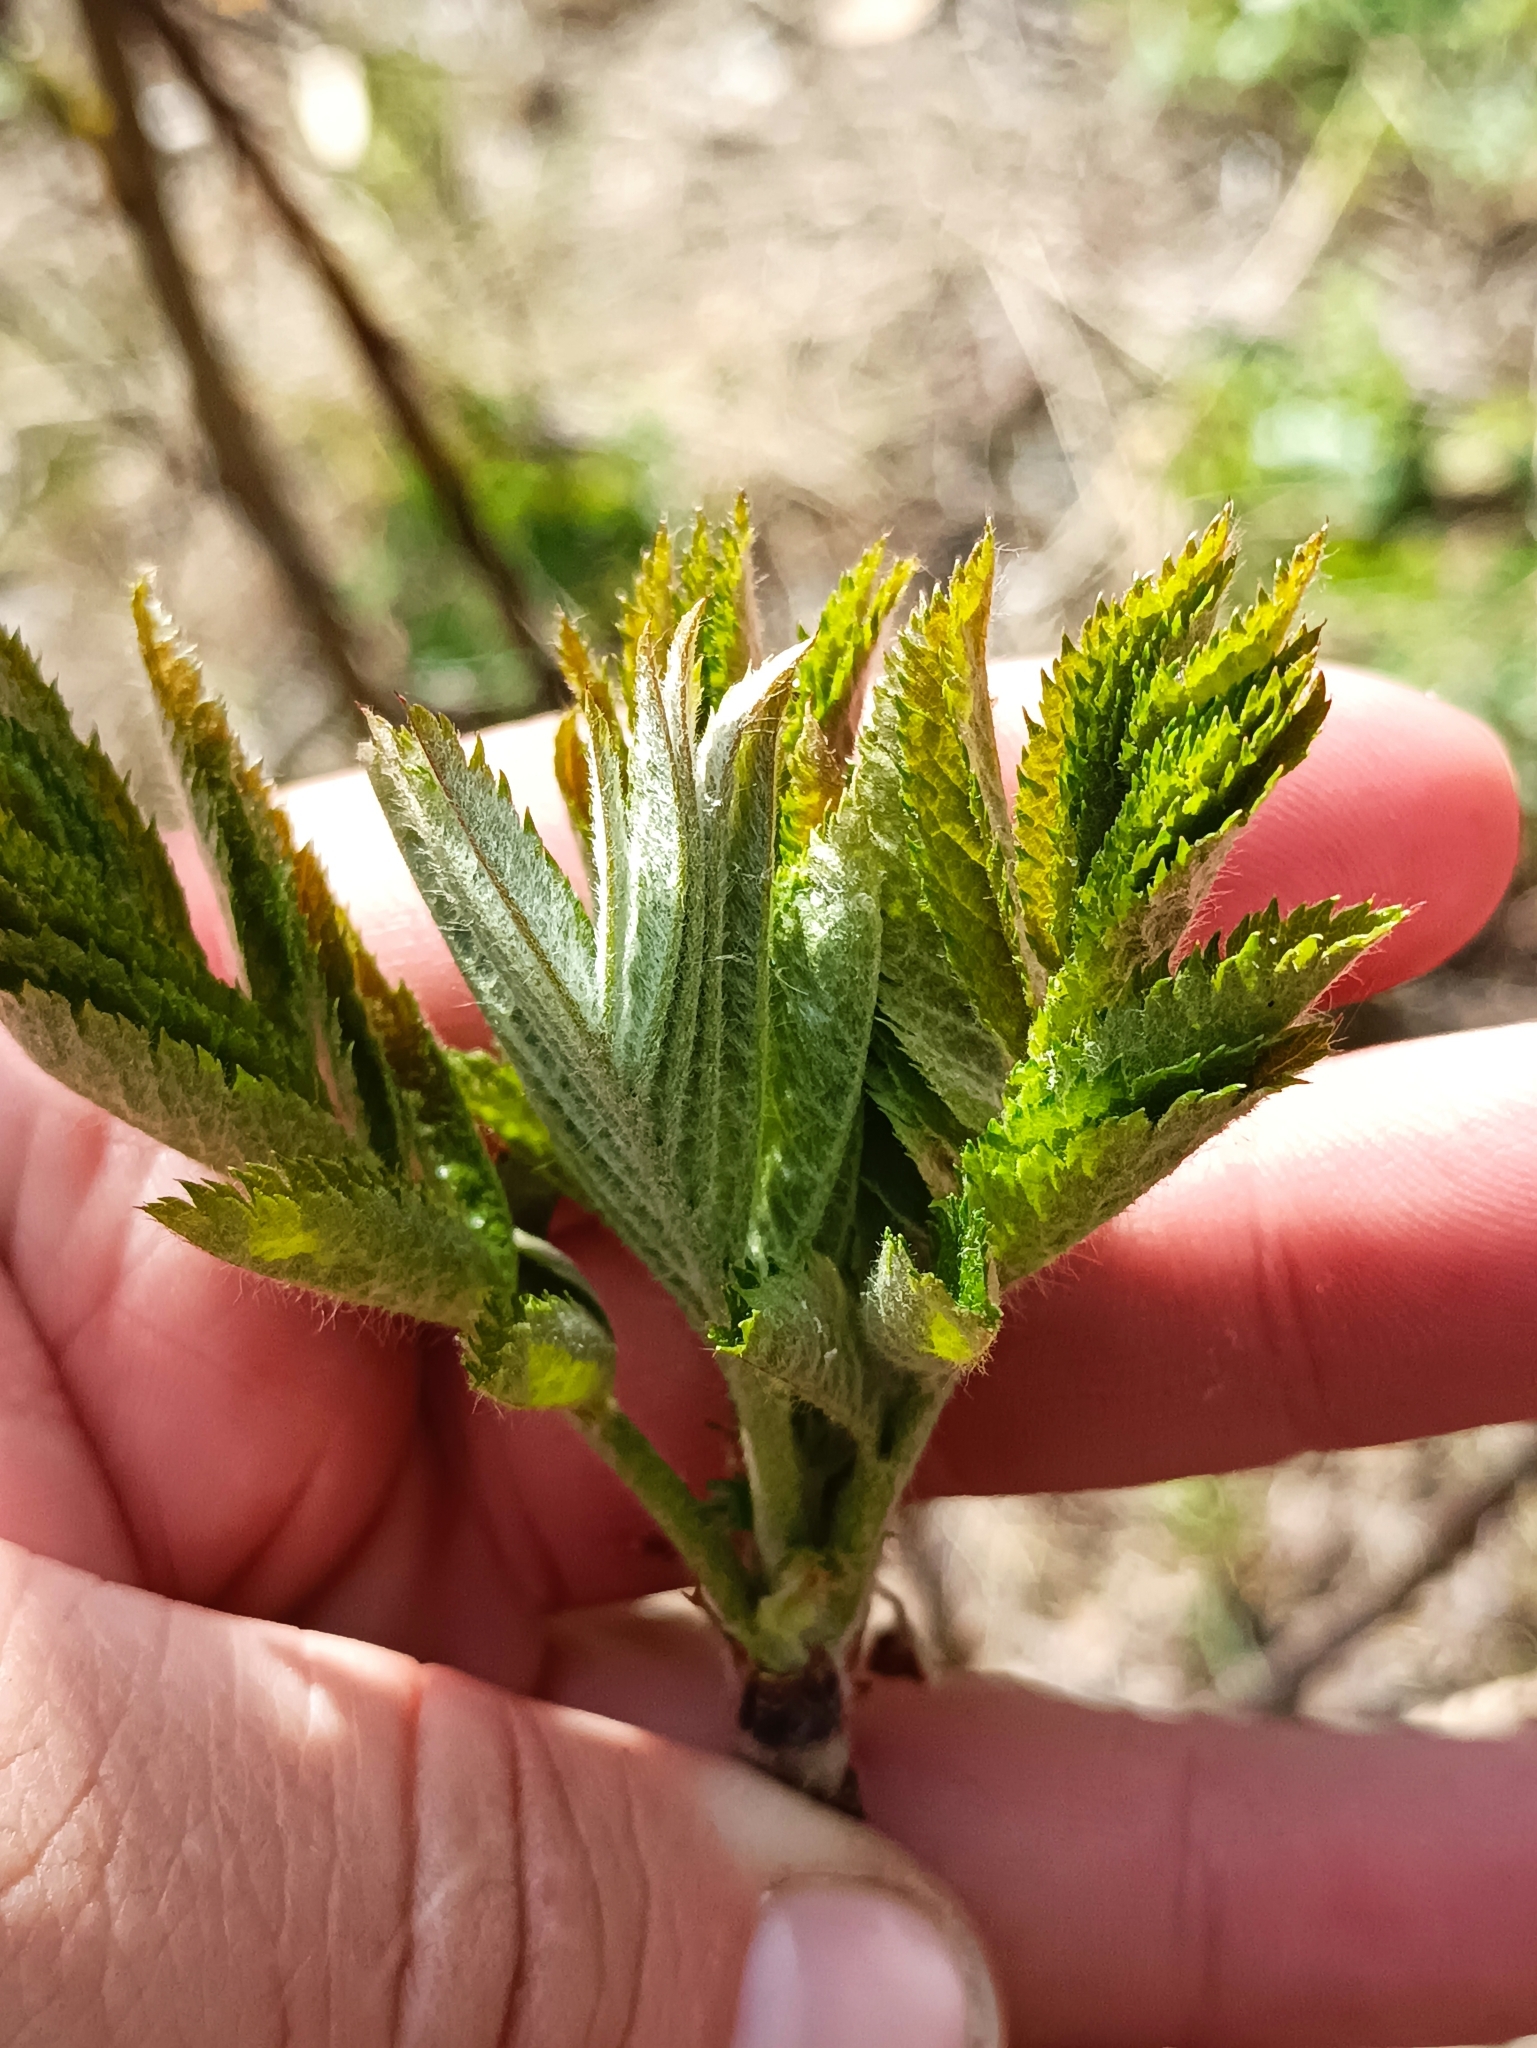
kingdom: Plantae
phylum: Tracheophyta
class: Magnoliopsida
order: Rosales
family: Rosaceae
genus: Sorbus
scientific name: Sorbus aucuparia
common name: Rowan
